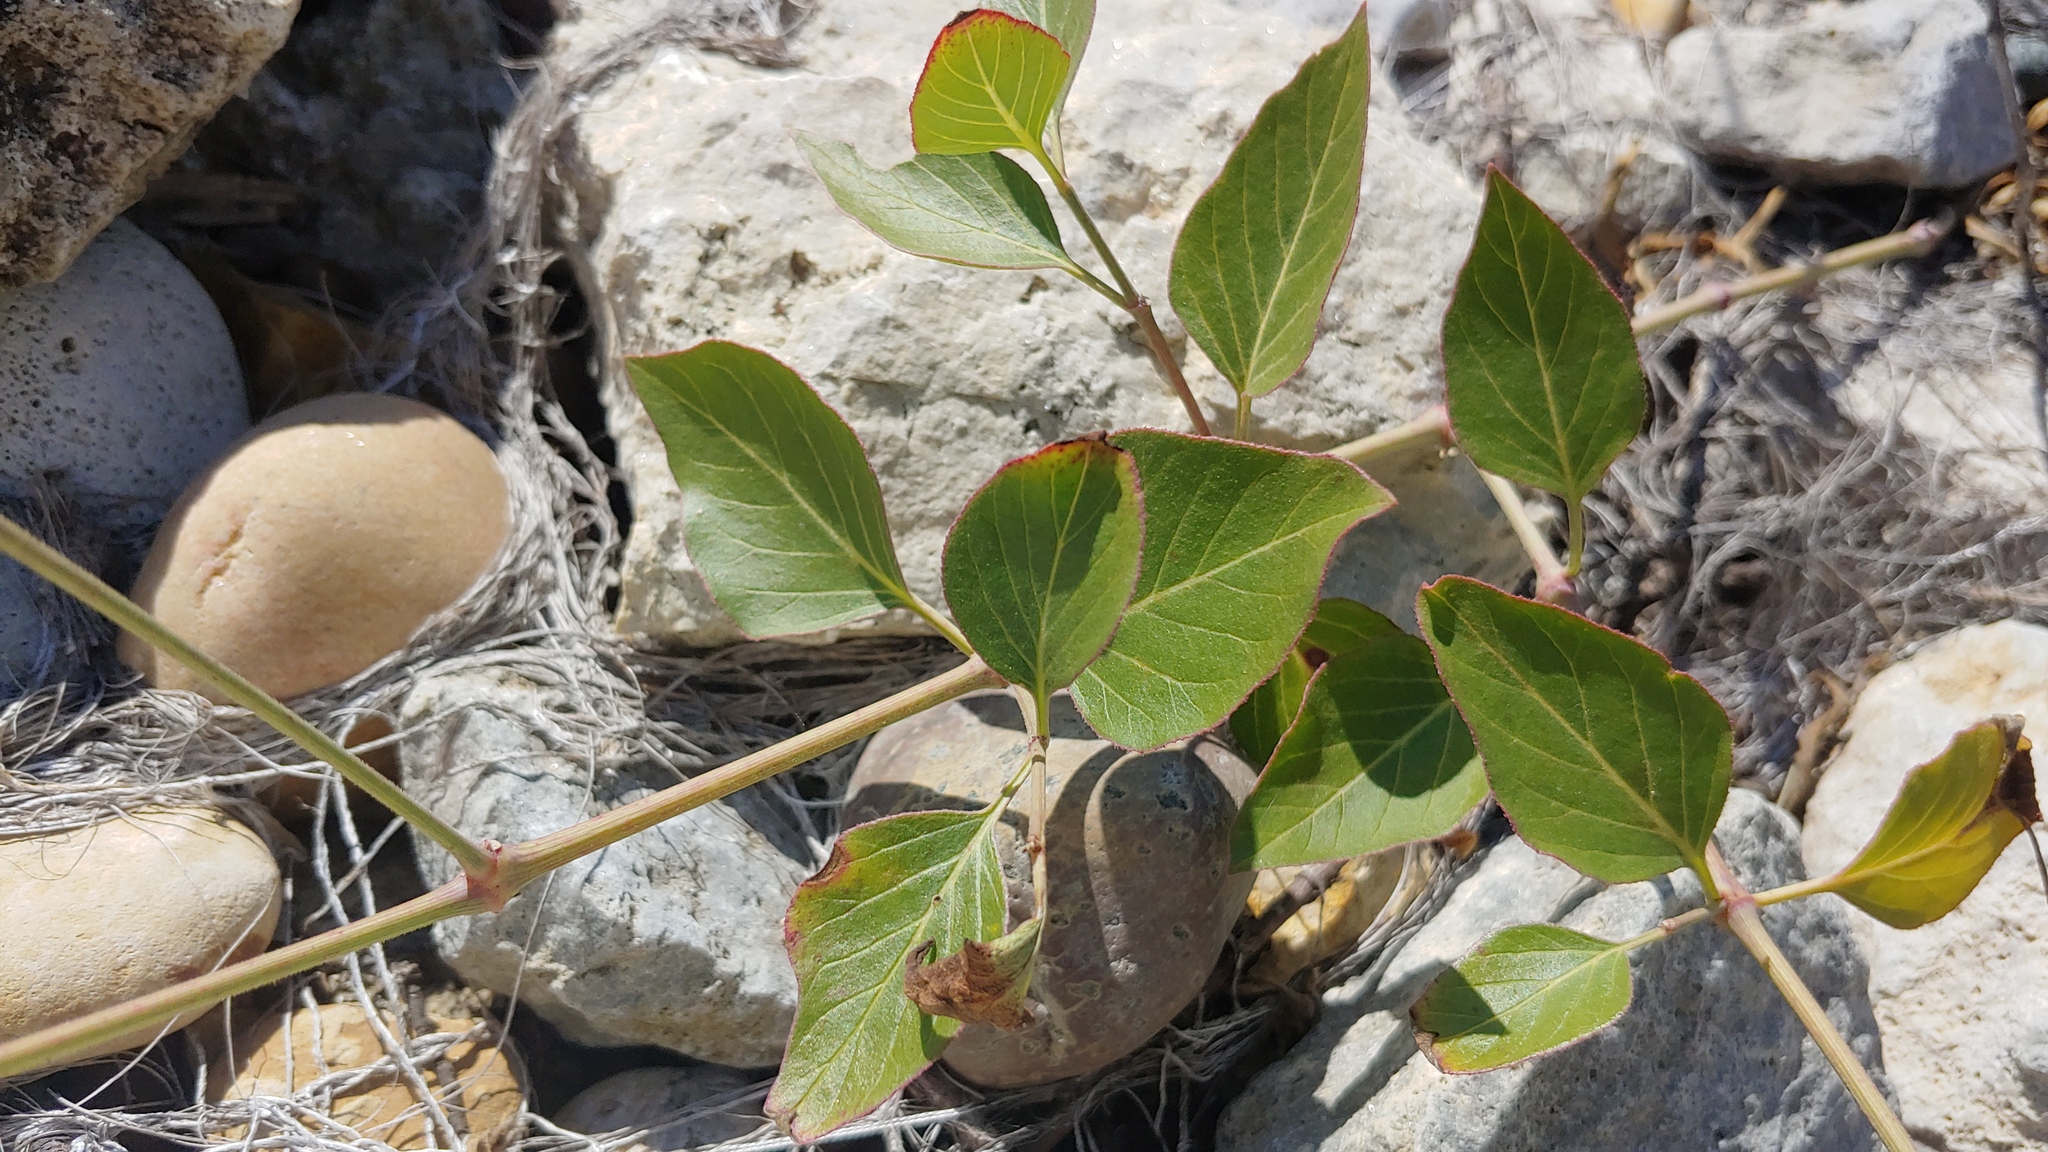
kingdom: Plantae
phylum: Tracheophyta
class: Magnoliopsida
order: Caryophyllales
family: Nyctaginaceae
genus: Mirabilis
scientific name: Mirabilis nyctaginea
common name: Umbrella wort
